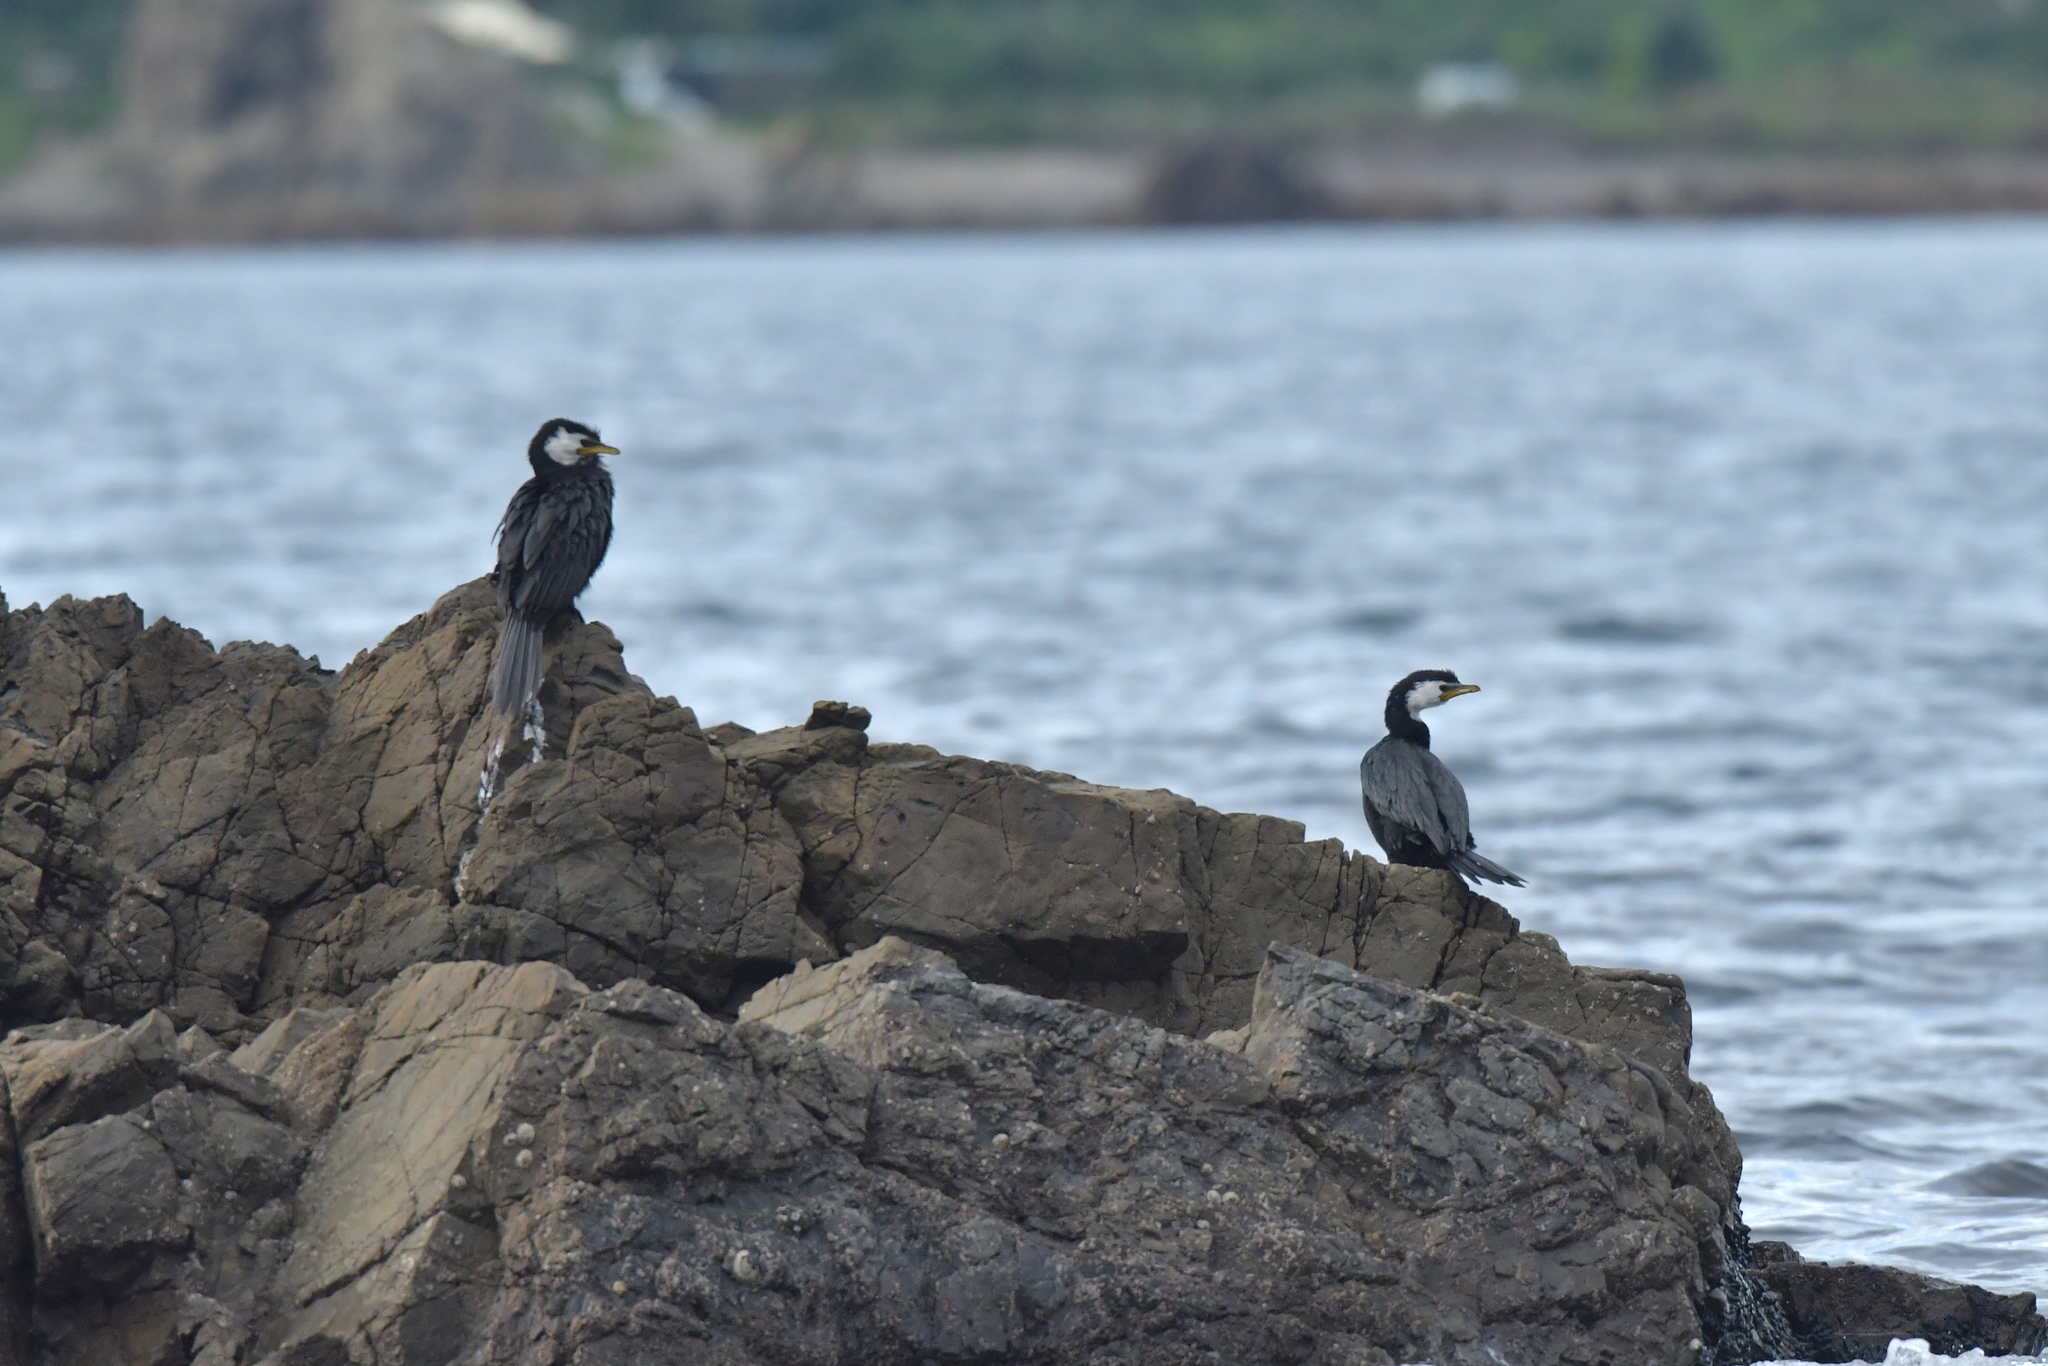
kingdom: Animalia
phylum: Chordata
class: Aves
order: Suliformes
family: Phalacrocoracidae
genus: Microcarbo
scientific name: Microcarbo melanoleucos
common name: Little pied cormorant
